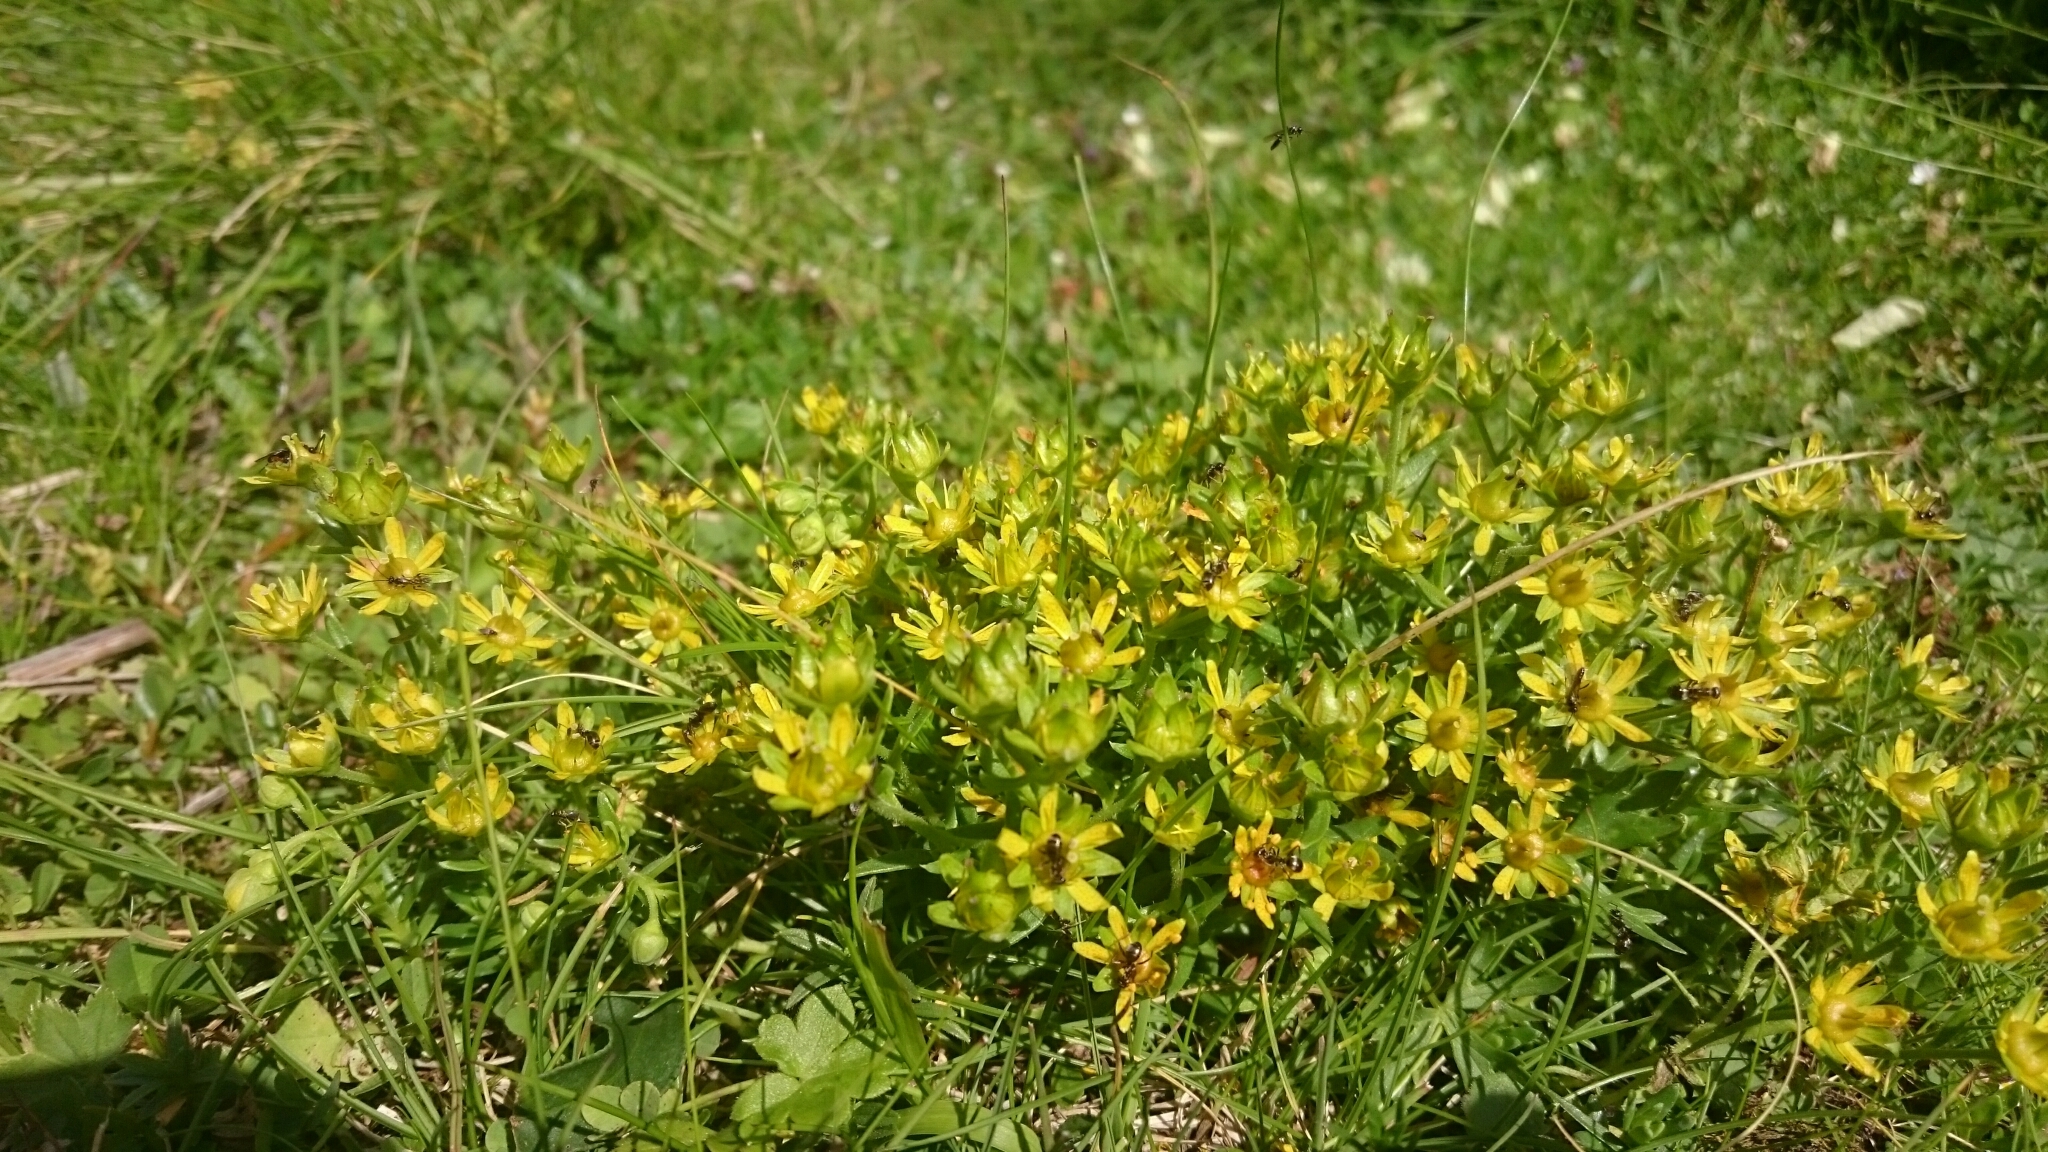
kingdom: Plantae
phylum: Tracheophyta
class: Magnoliopsida
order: Saxifragales
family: Saxifragaceae
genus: Saxifraga
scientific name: Saxifraga aizoides
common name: Yellow mountain saxifrage
